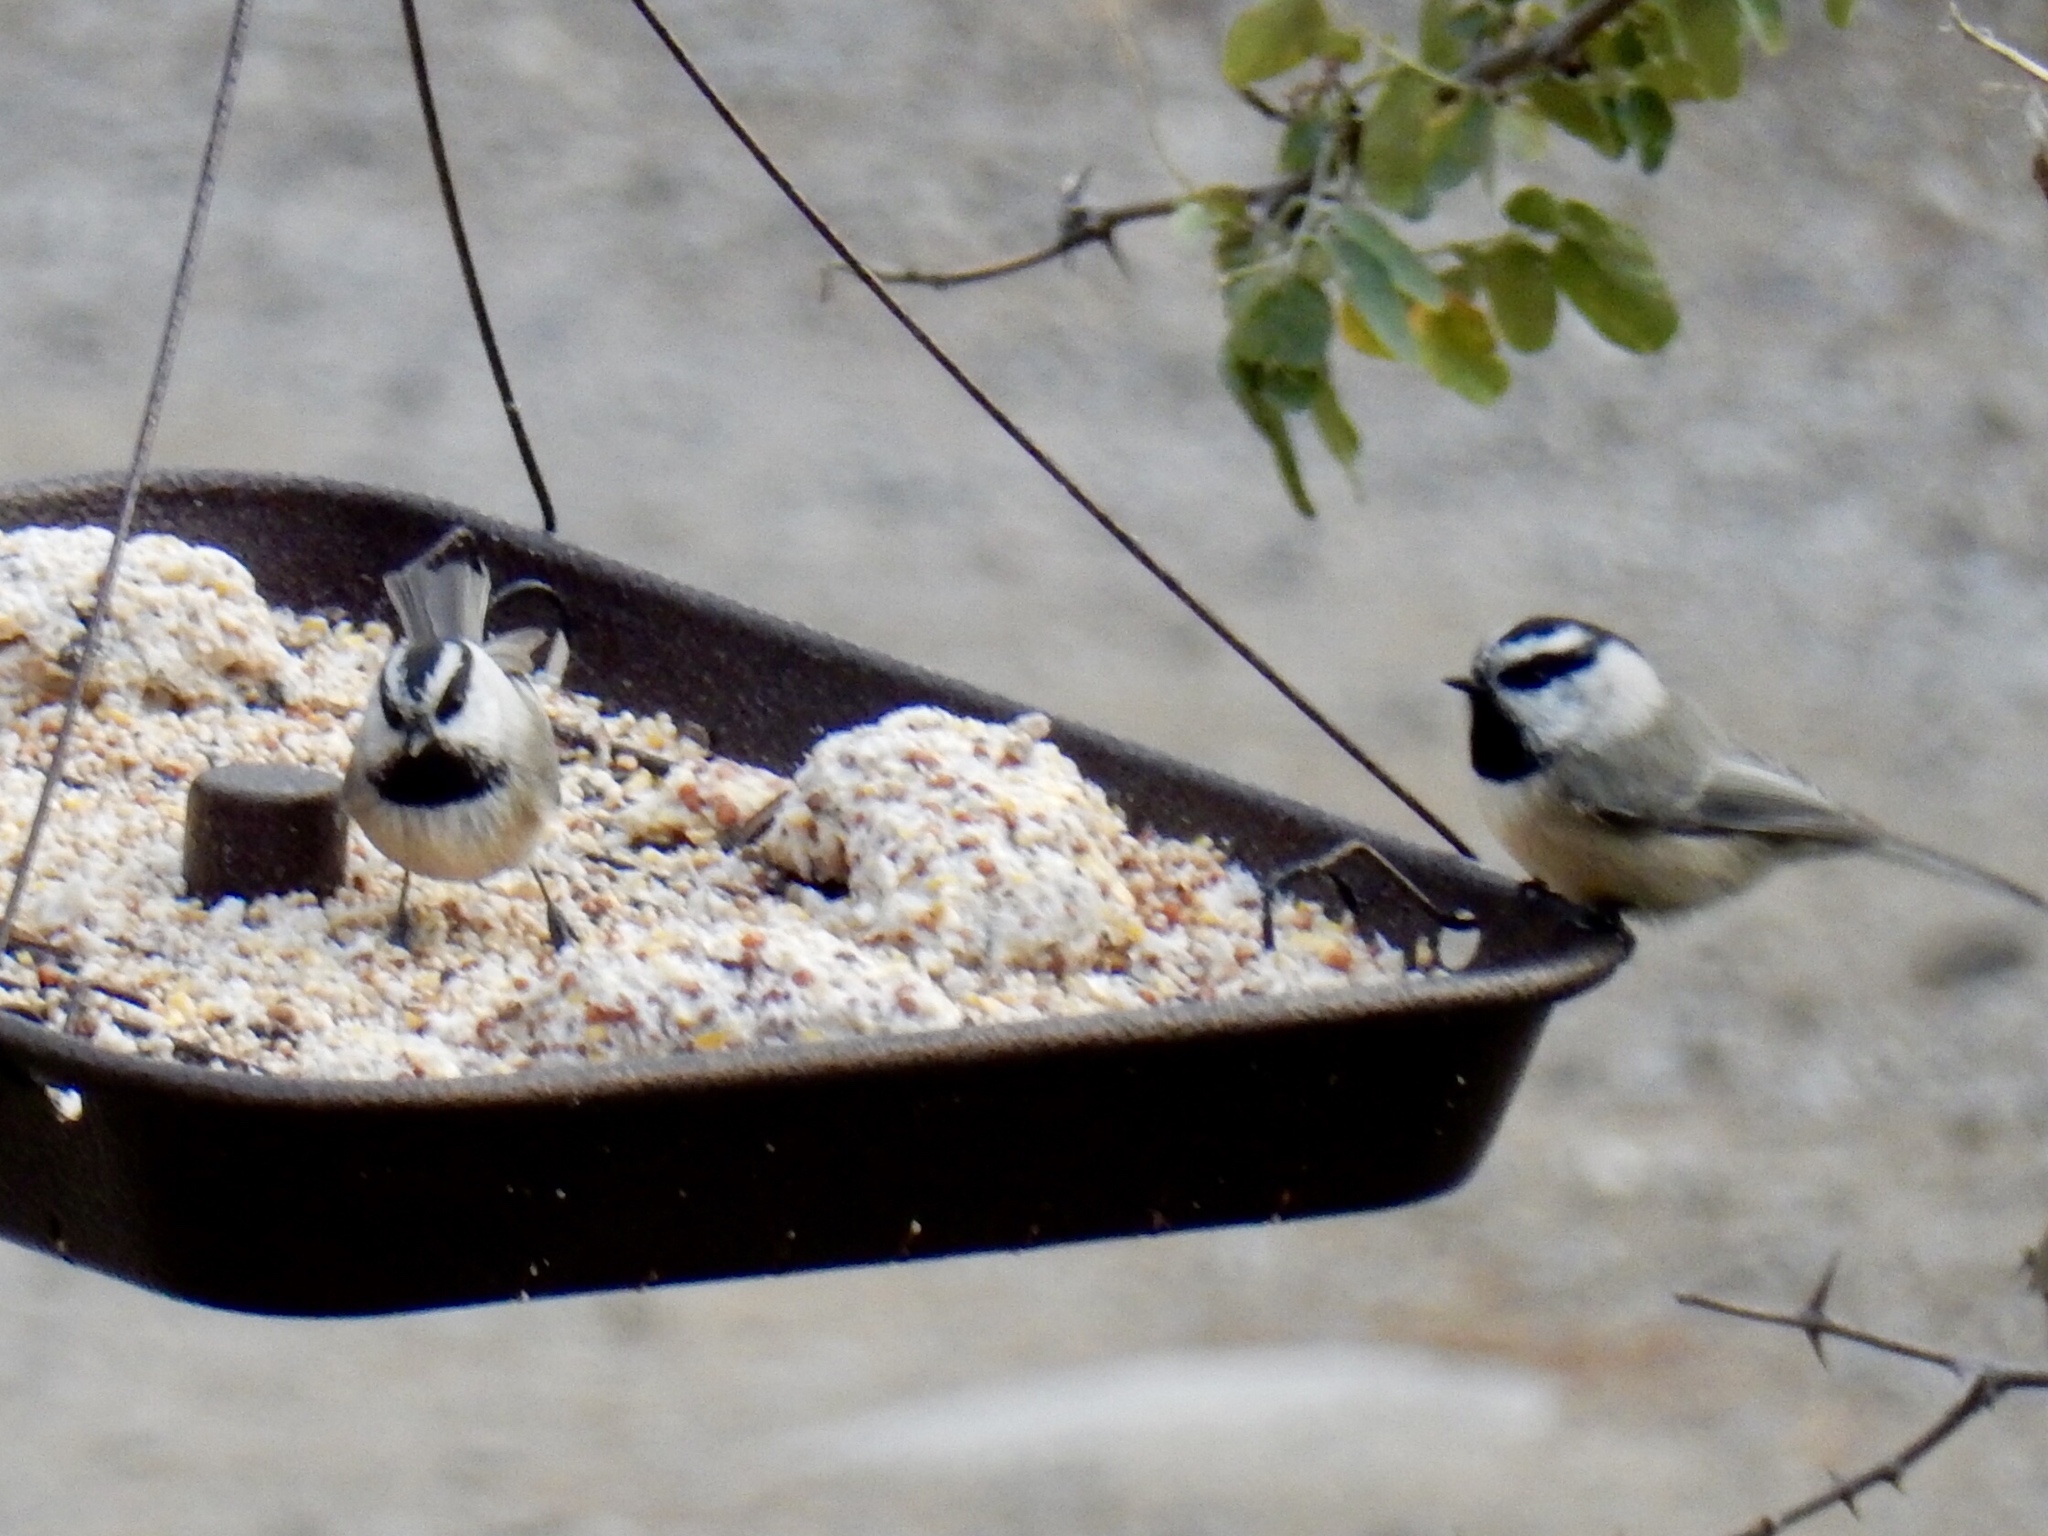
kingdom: Animalia
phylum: Chordata
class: Aves
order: Passeriformes
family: Paridae
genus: Poecile
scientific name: Poecile gambeli
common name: Mountain chickadee
